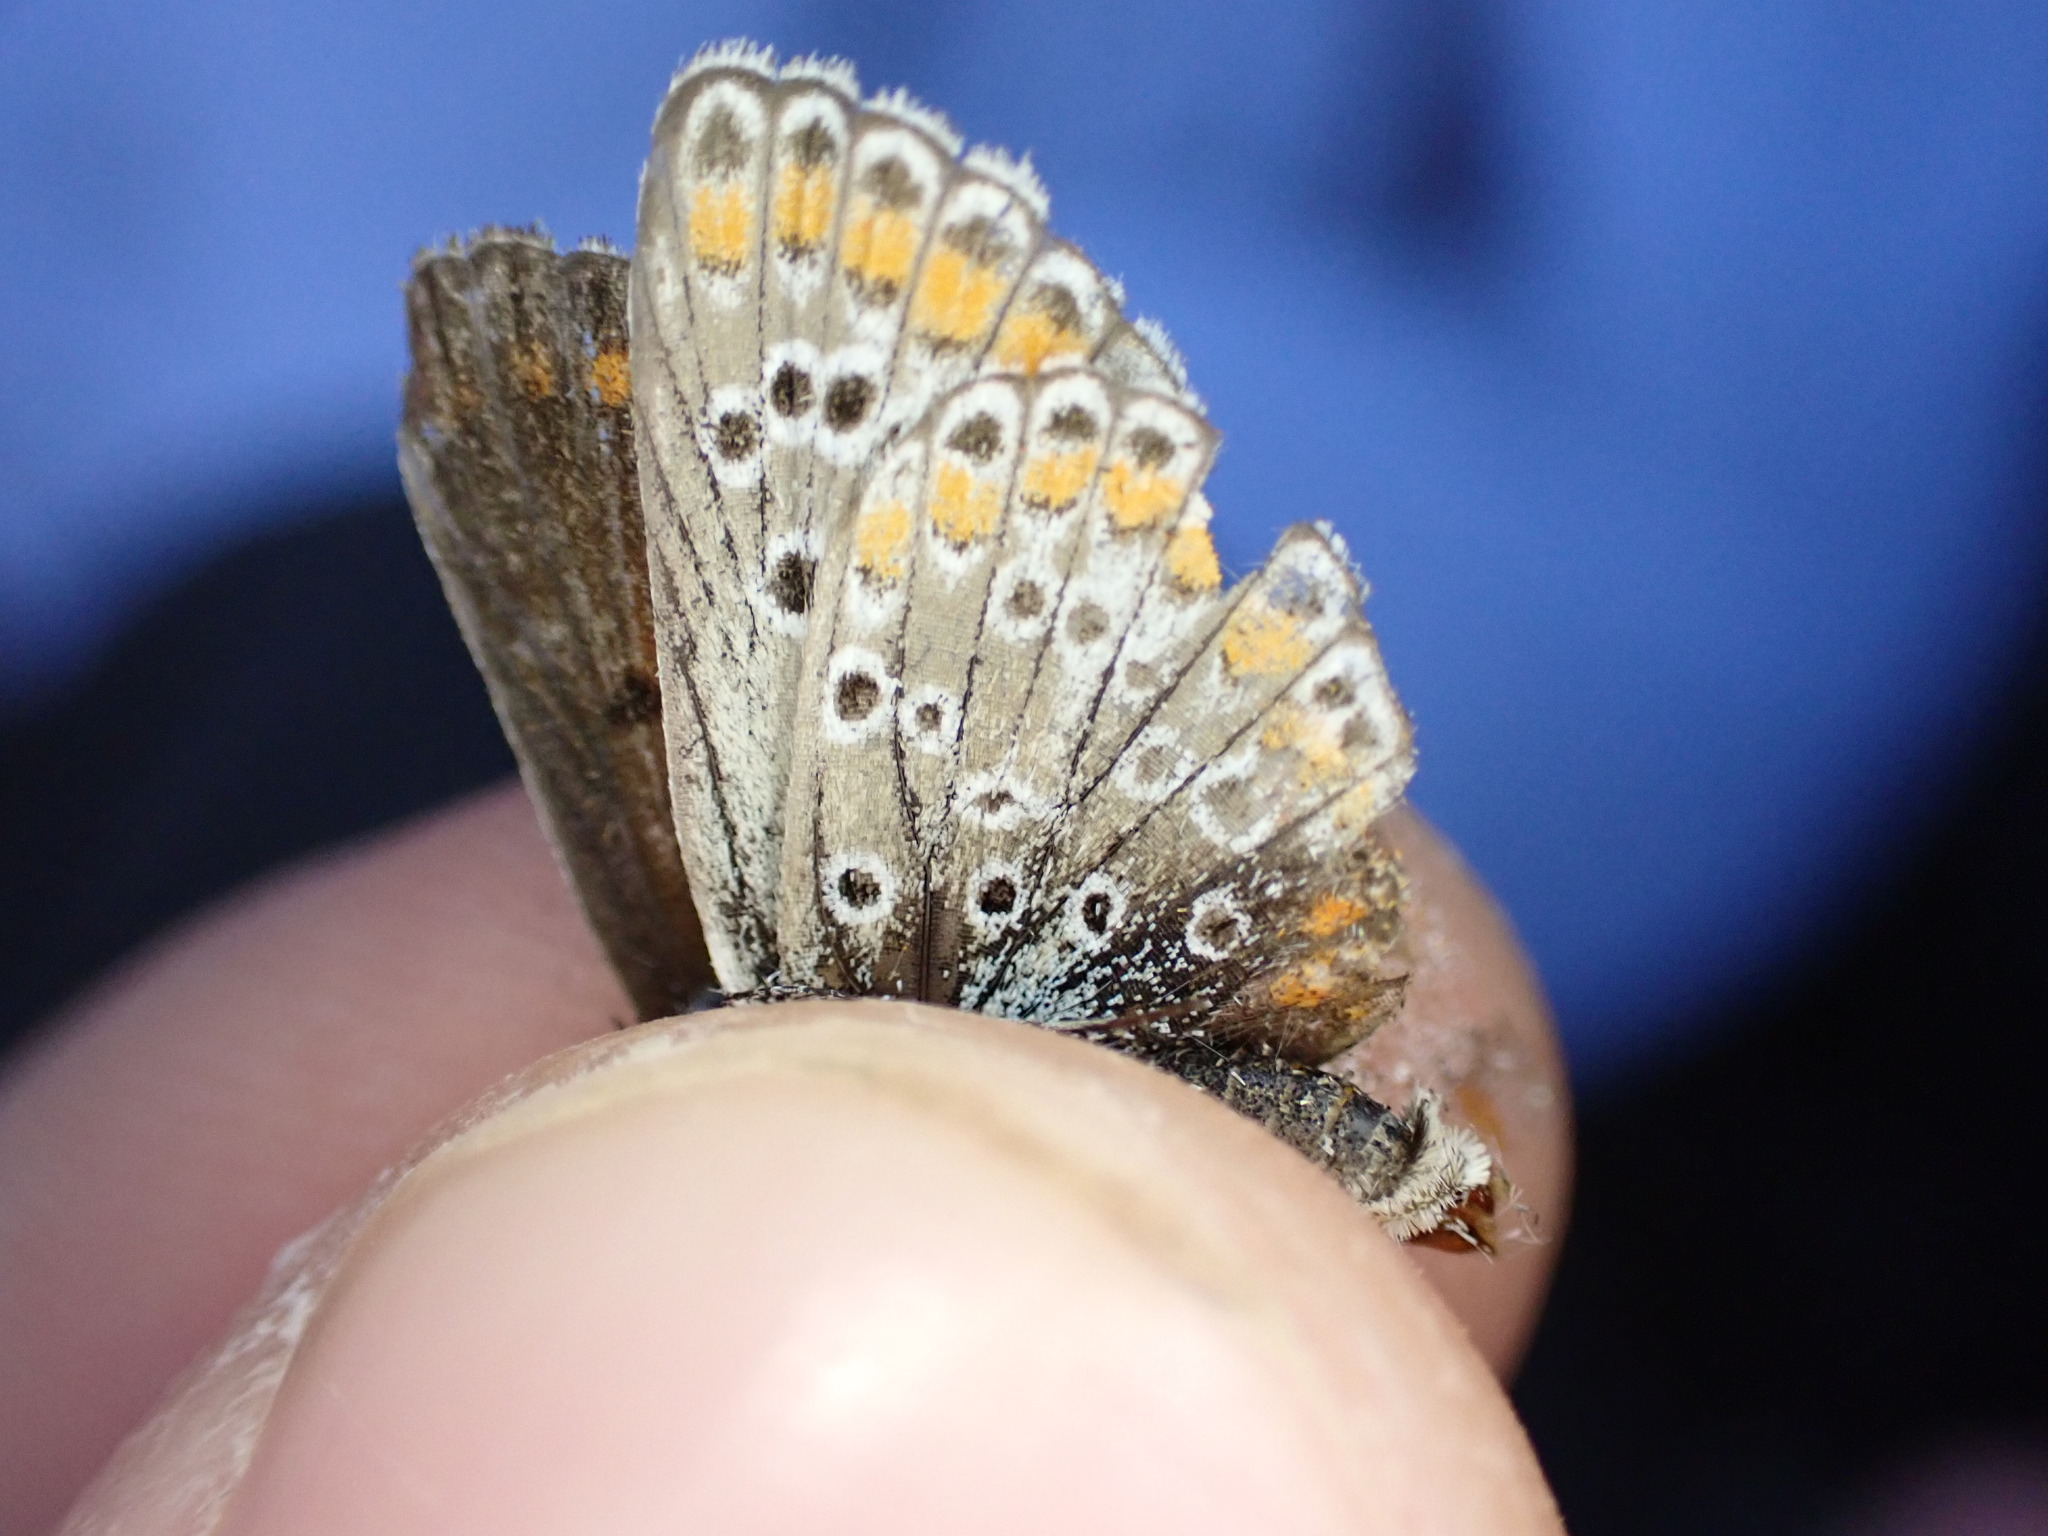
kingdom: Animalia
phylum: Arthropoda
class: Insecta
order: Lepidoptera
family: Lycaenidae
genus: Aricia
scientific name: Aricia agestis
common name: Brown argus
